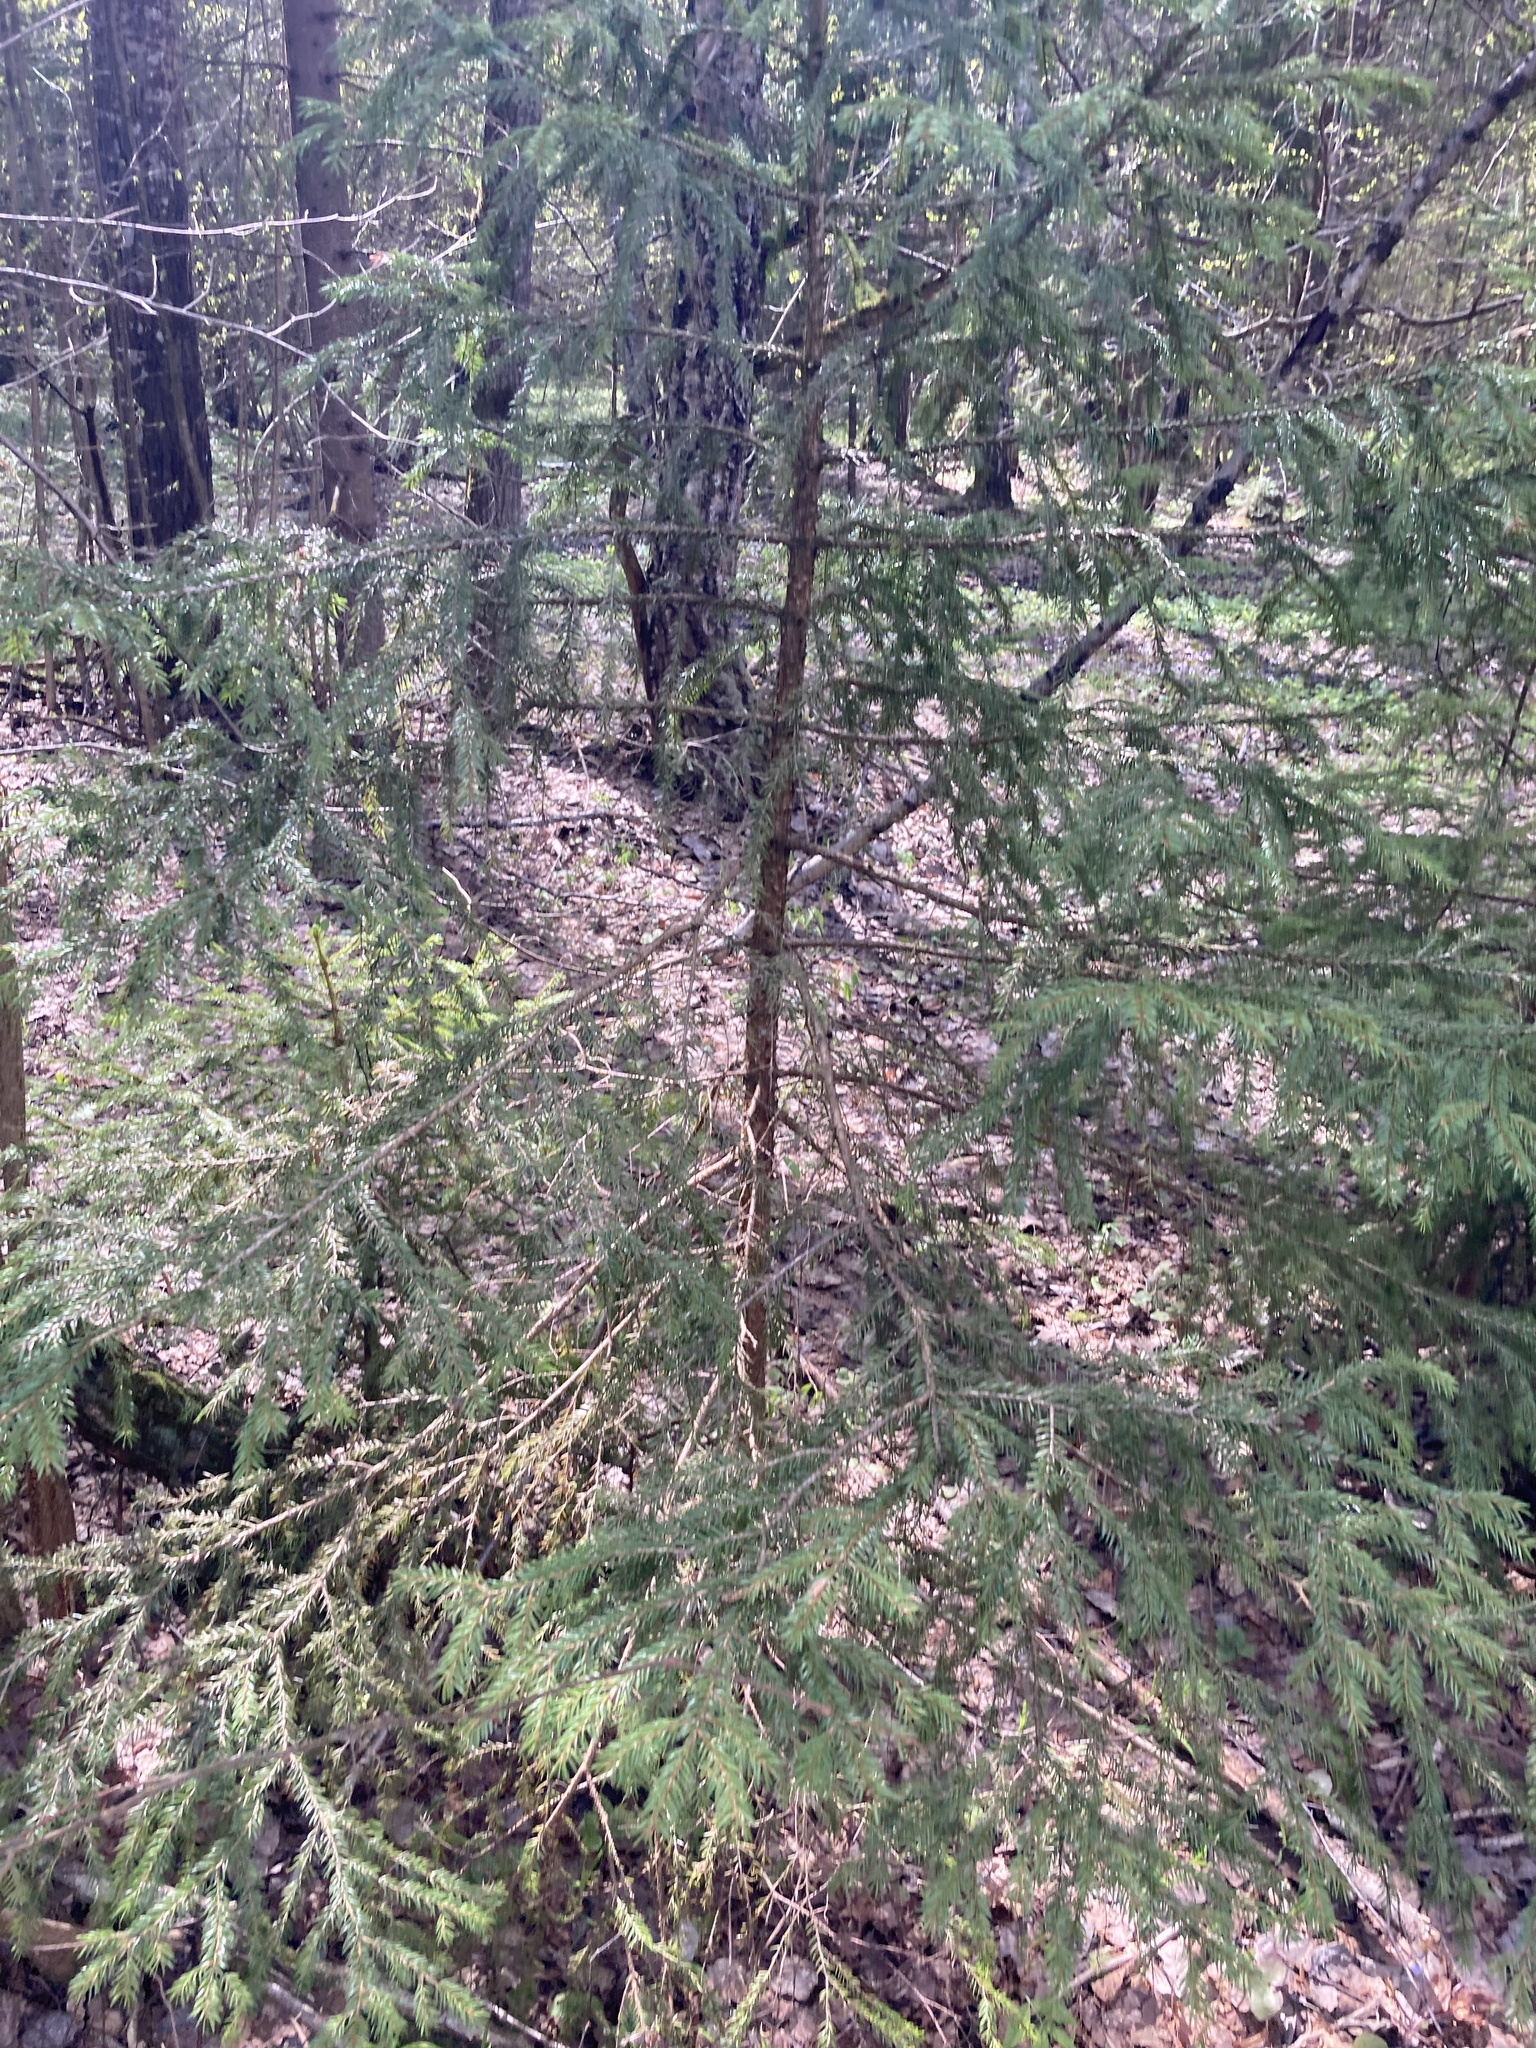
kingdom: Plantae
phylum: Tracheophyta
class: Pinopsida
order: Pinales
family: Pinaceae
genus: Picea
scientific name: Picea abies
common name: Norway spruce
